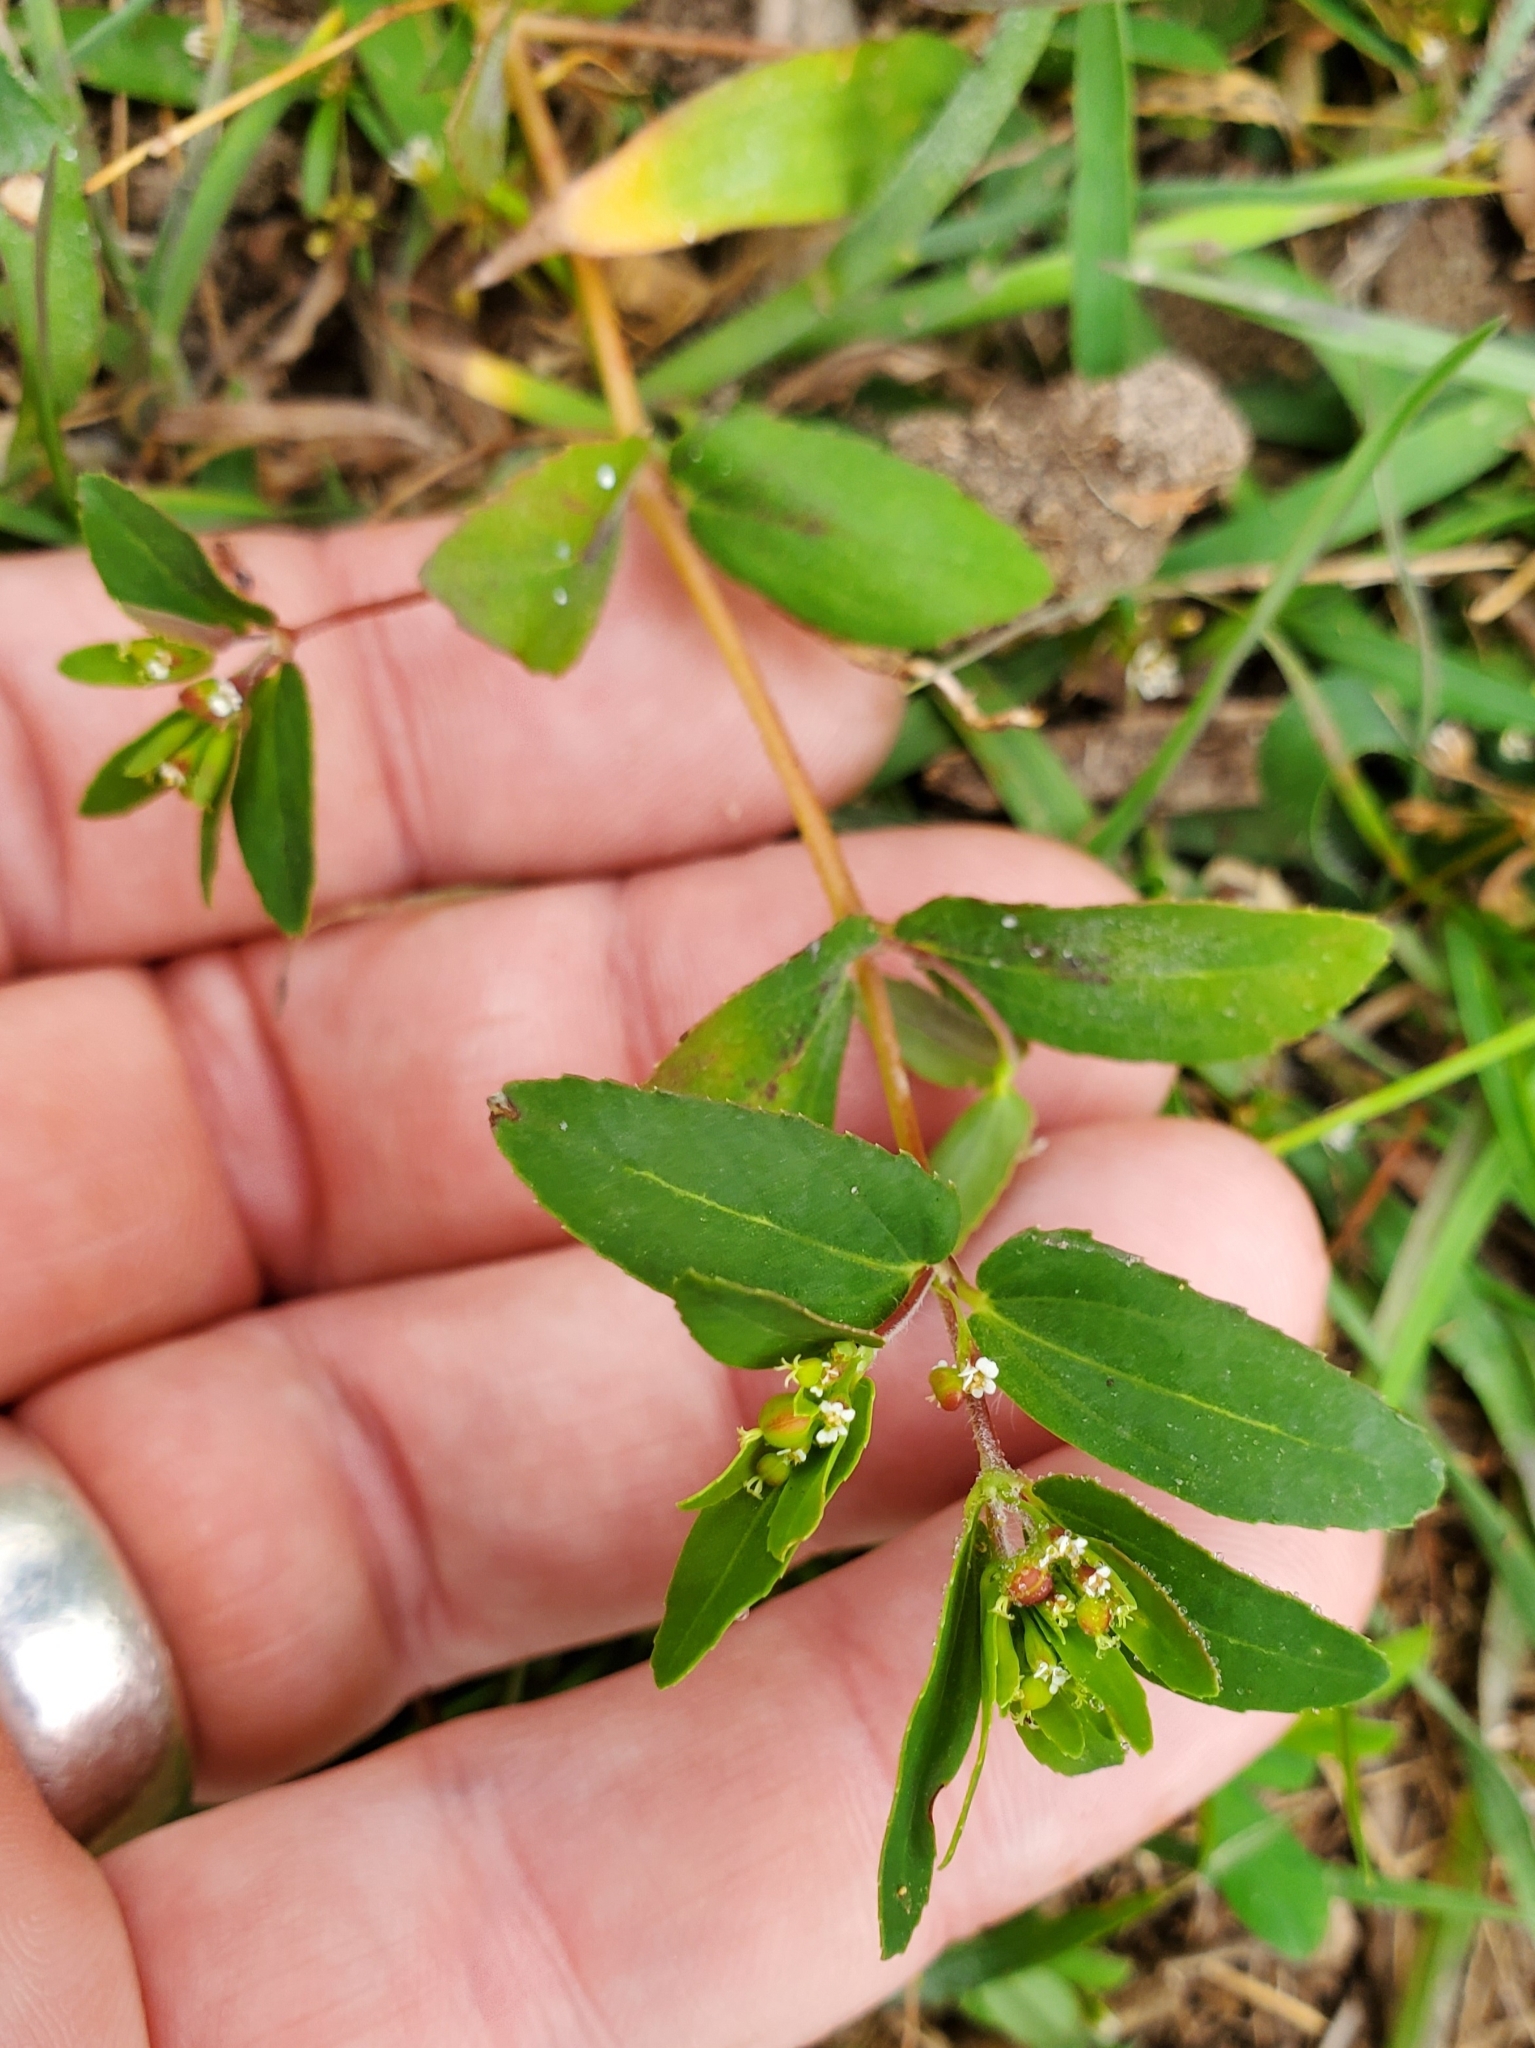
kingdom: Plantae
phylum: Tracheophyta
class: Magnoliopsida
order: Malpighiales
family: Euphorbiaceae
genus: Euphorbia
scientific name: Euphorbia nutans
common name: Eyebane
